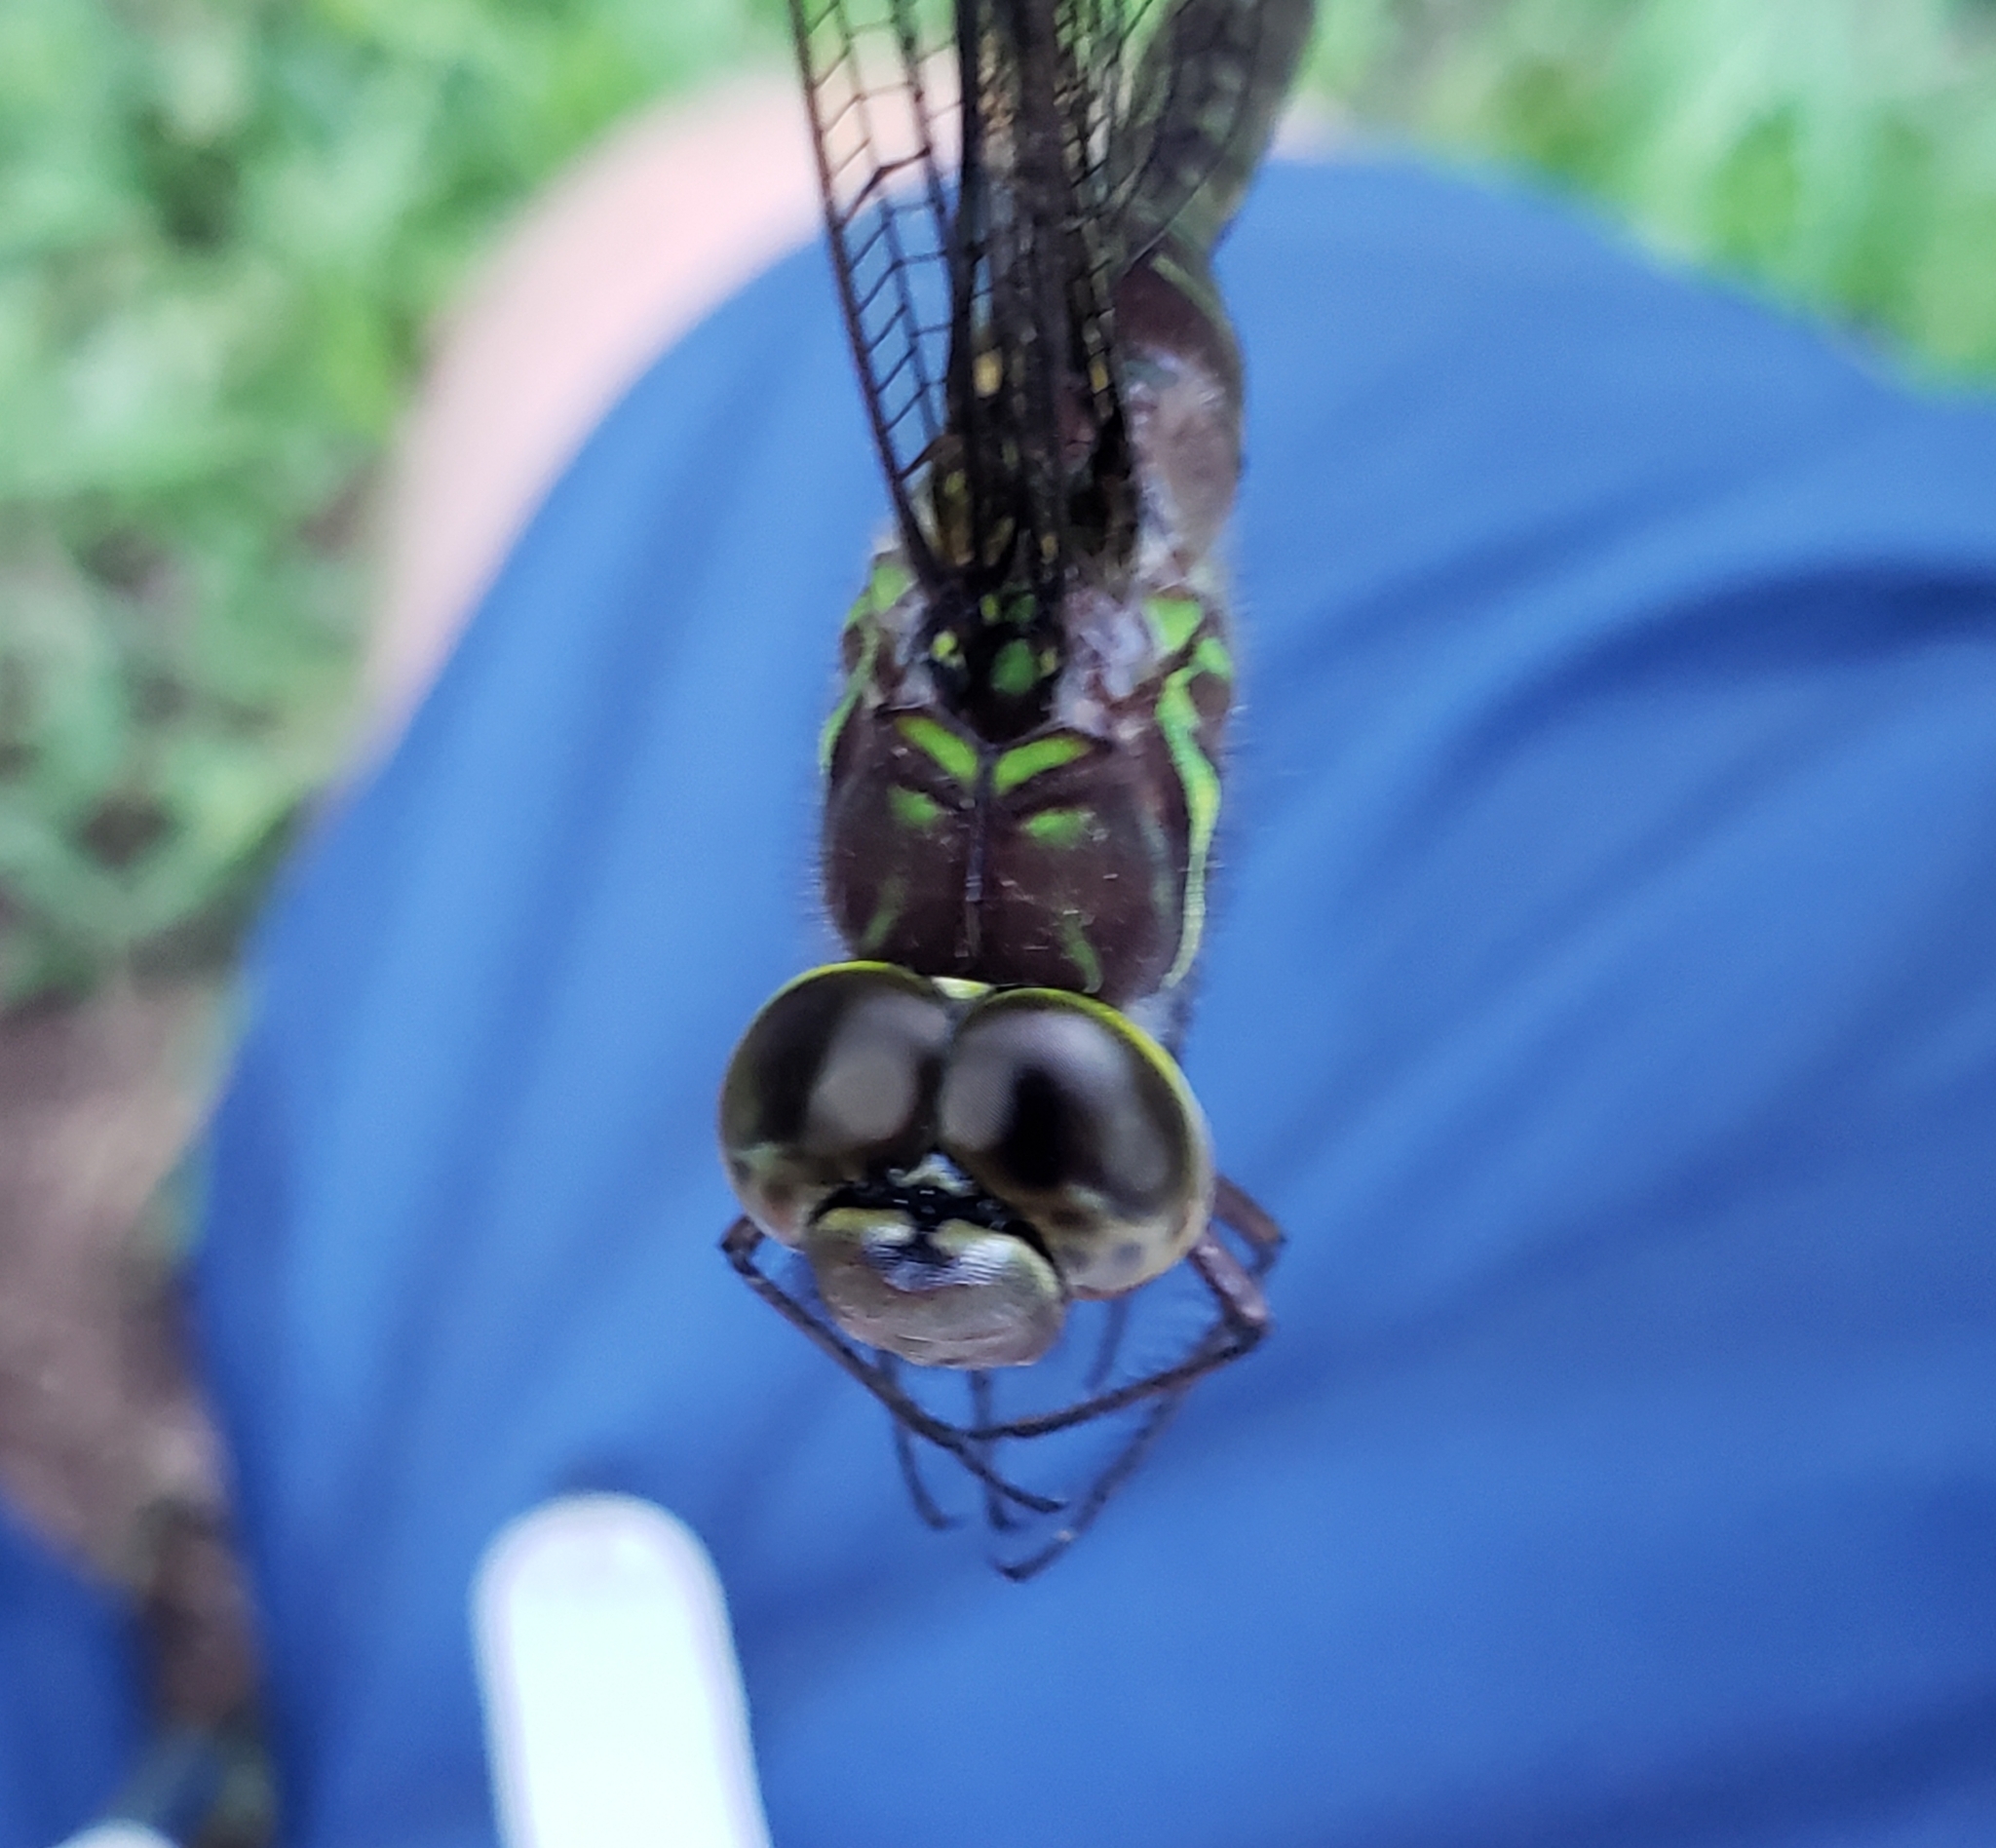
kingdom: Animalia
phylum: Arthropoda
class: Insecta
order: Odonata
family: Aeshnidae
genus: Aeshna
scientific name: Aeshna umbrosa
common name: Shadow darner
